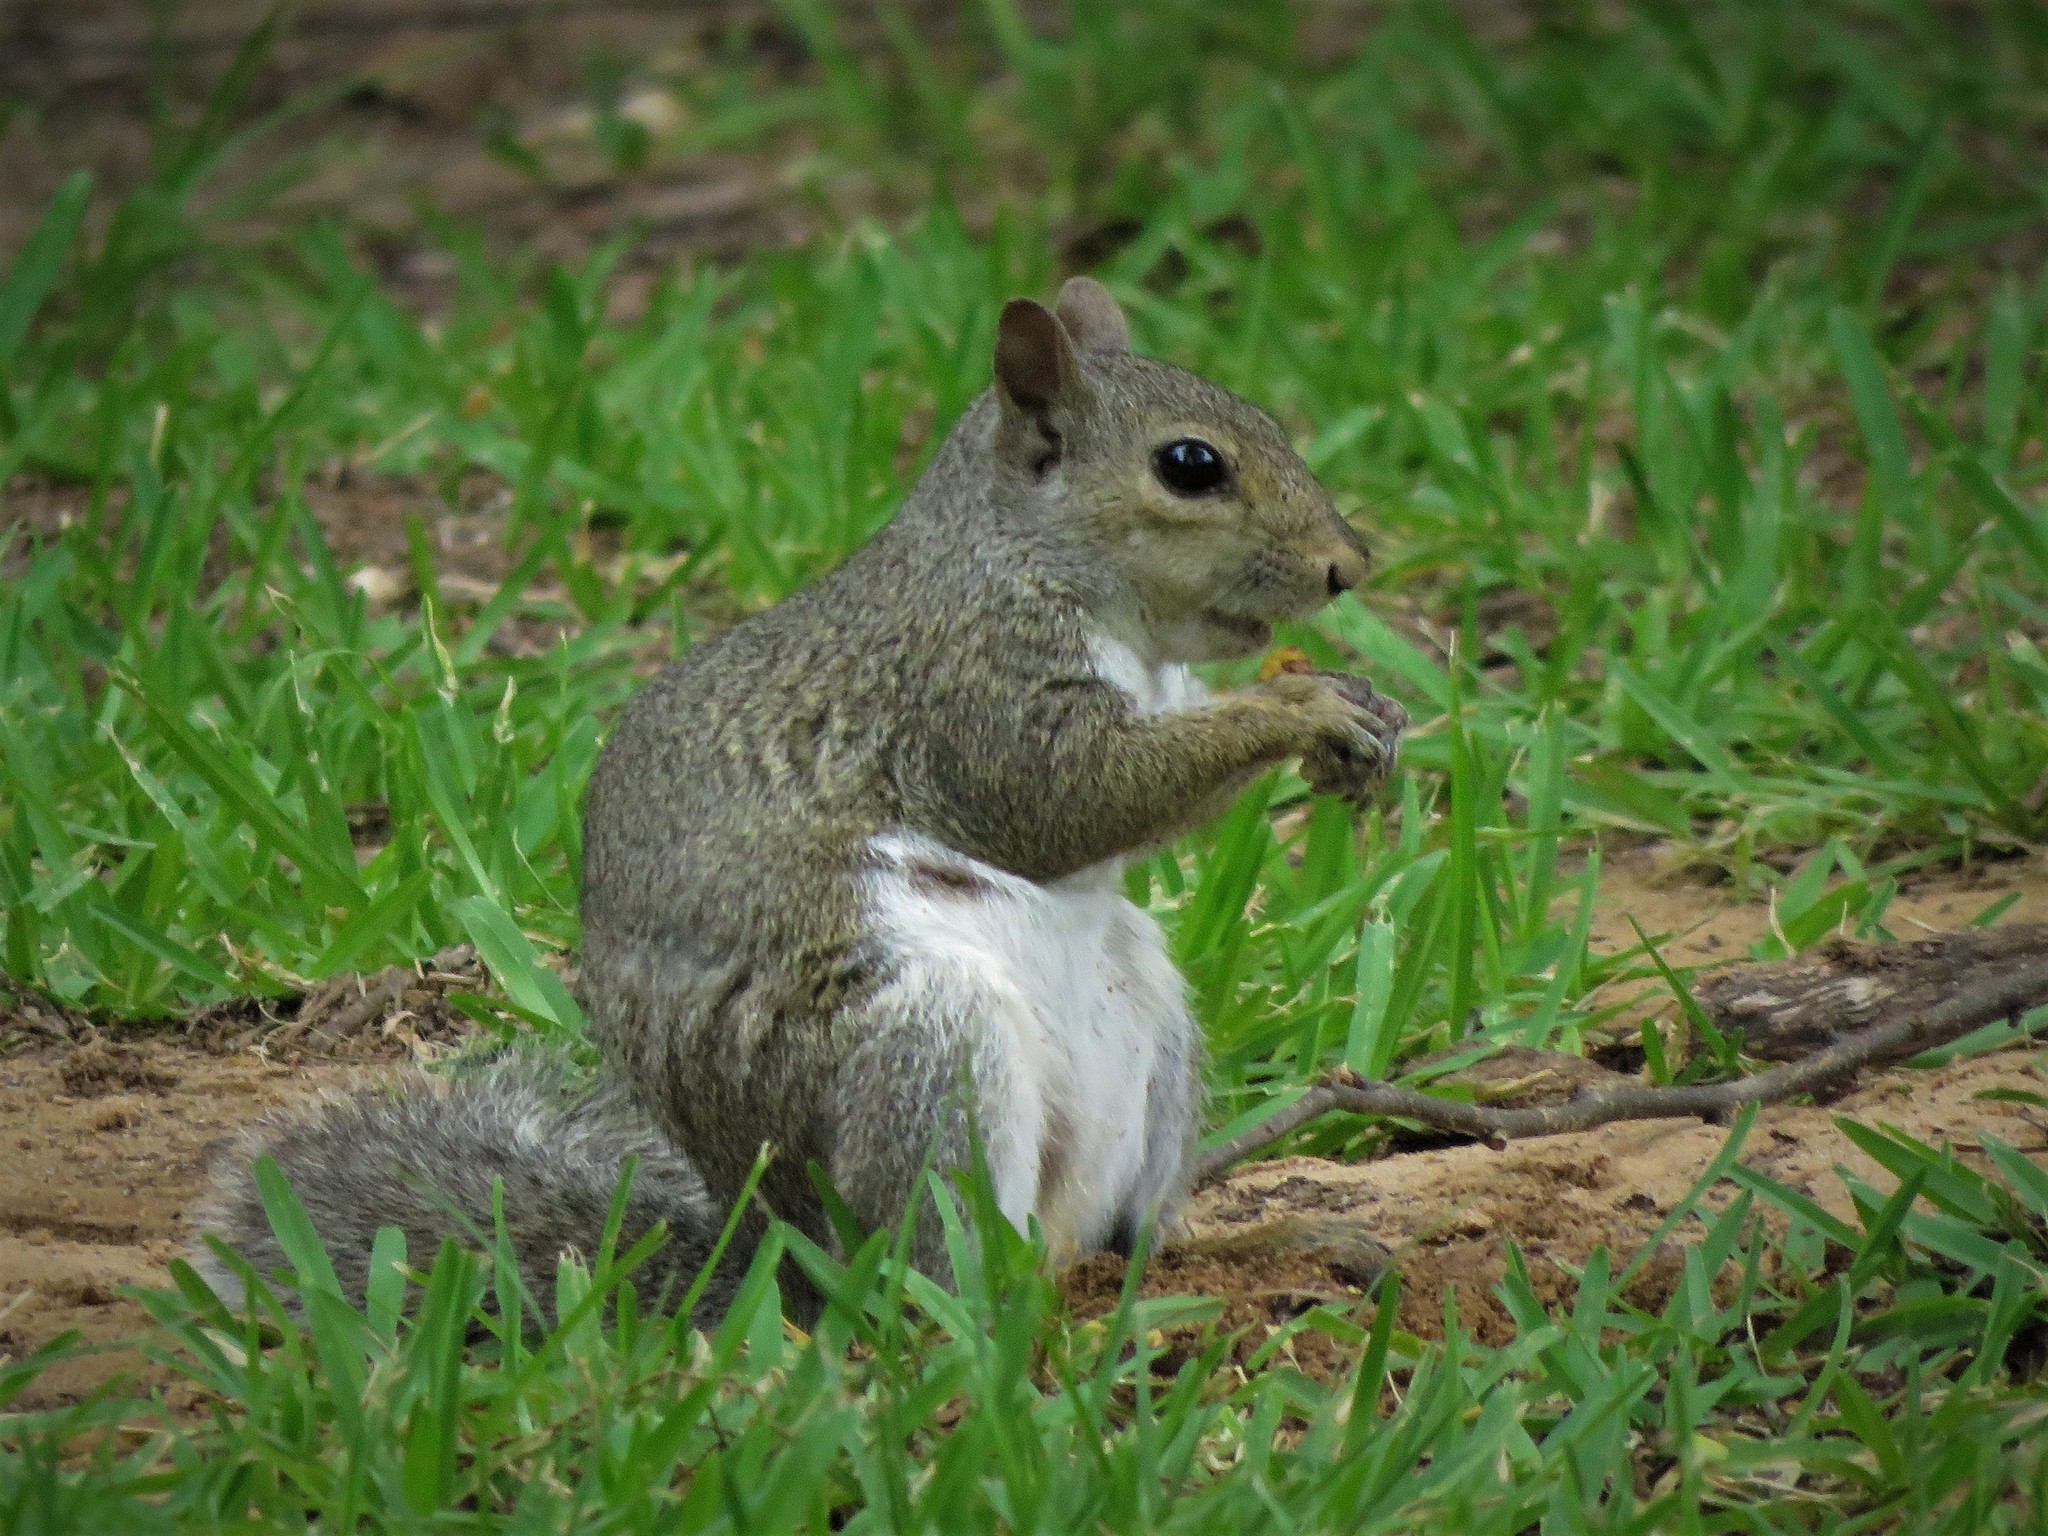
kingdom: Animalia
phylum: Chordata
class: Mammalia
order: Rodentia
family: Sciuridae
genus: Sciurus
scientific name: Sciurus carolinensis
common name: Eastern gray squirrel
